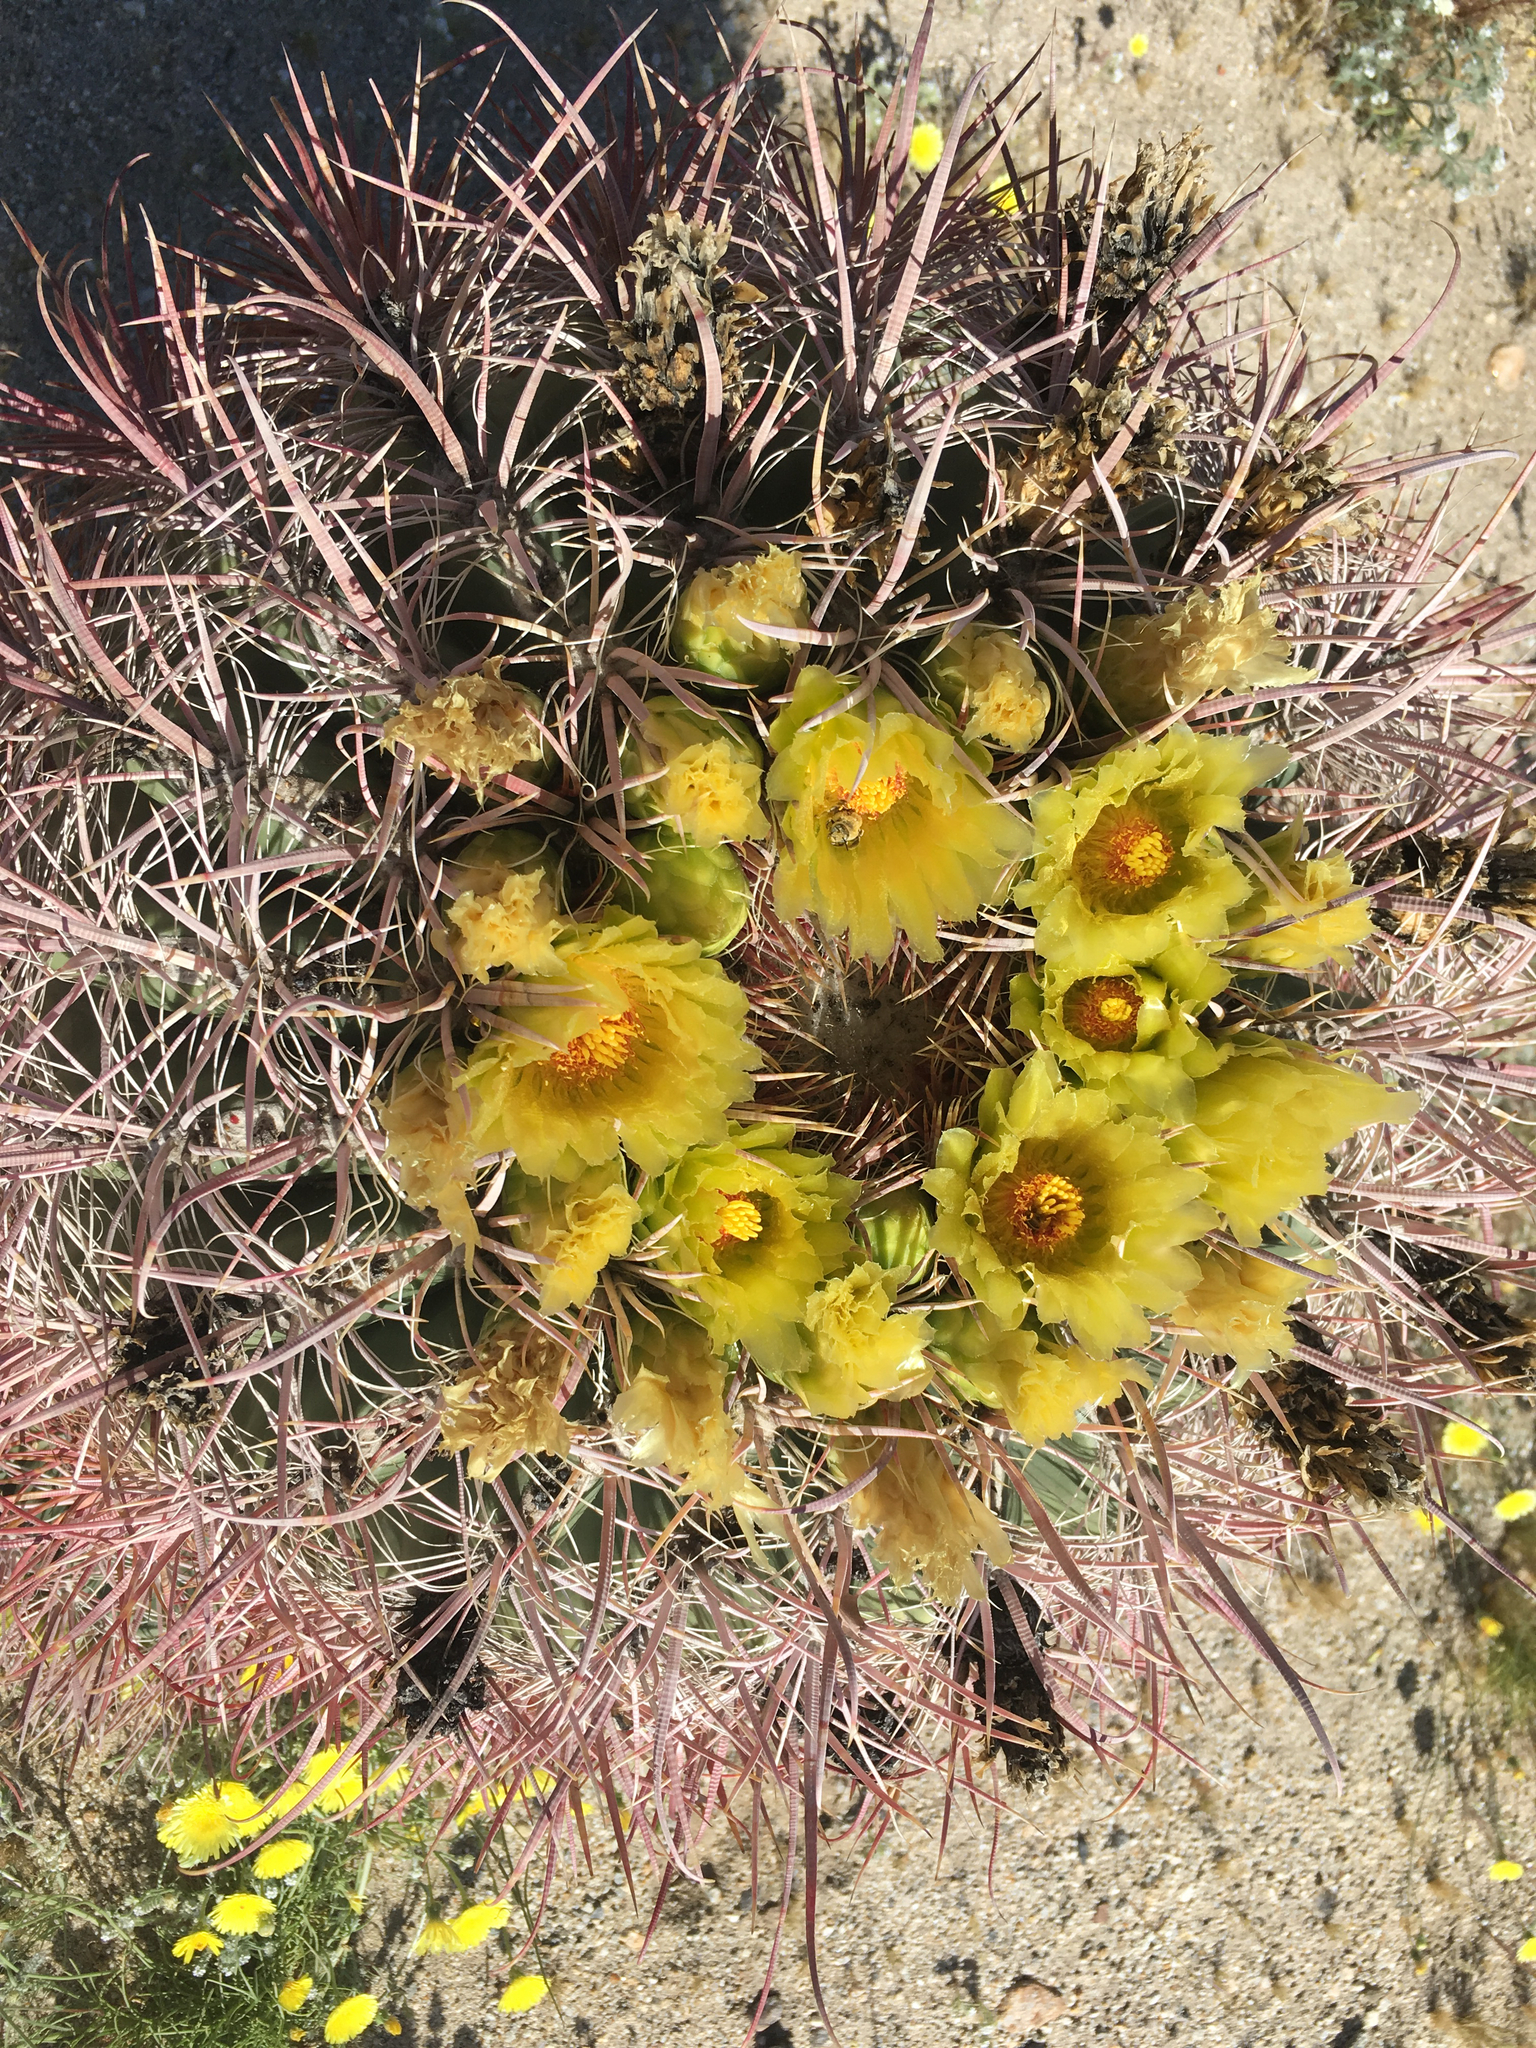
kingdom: Plantae
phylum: Tracheophyta
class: Magnoliopsida
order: Caryophyllales
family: Cactaceae
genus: Ferocactus
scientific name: Ferocactus cylindraceus
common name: California barrel cactus
